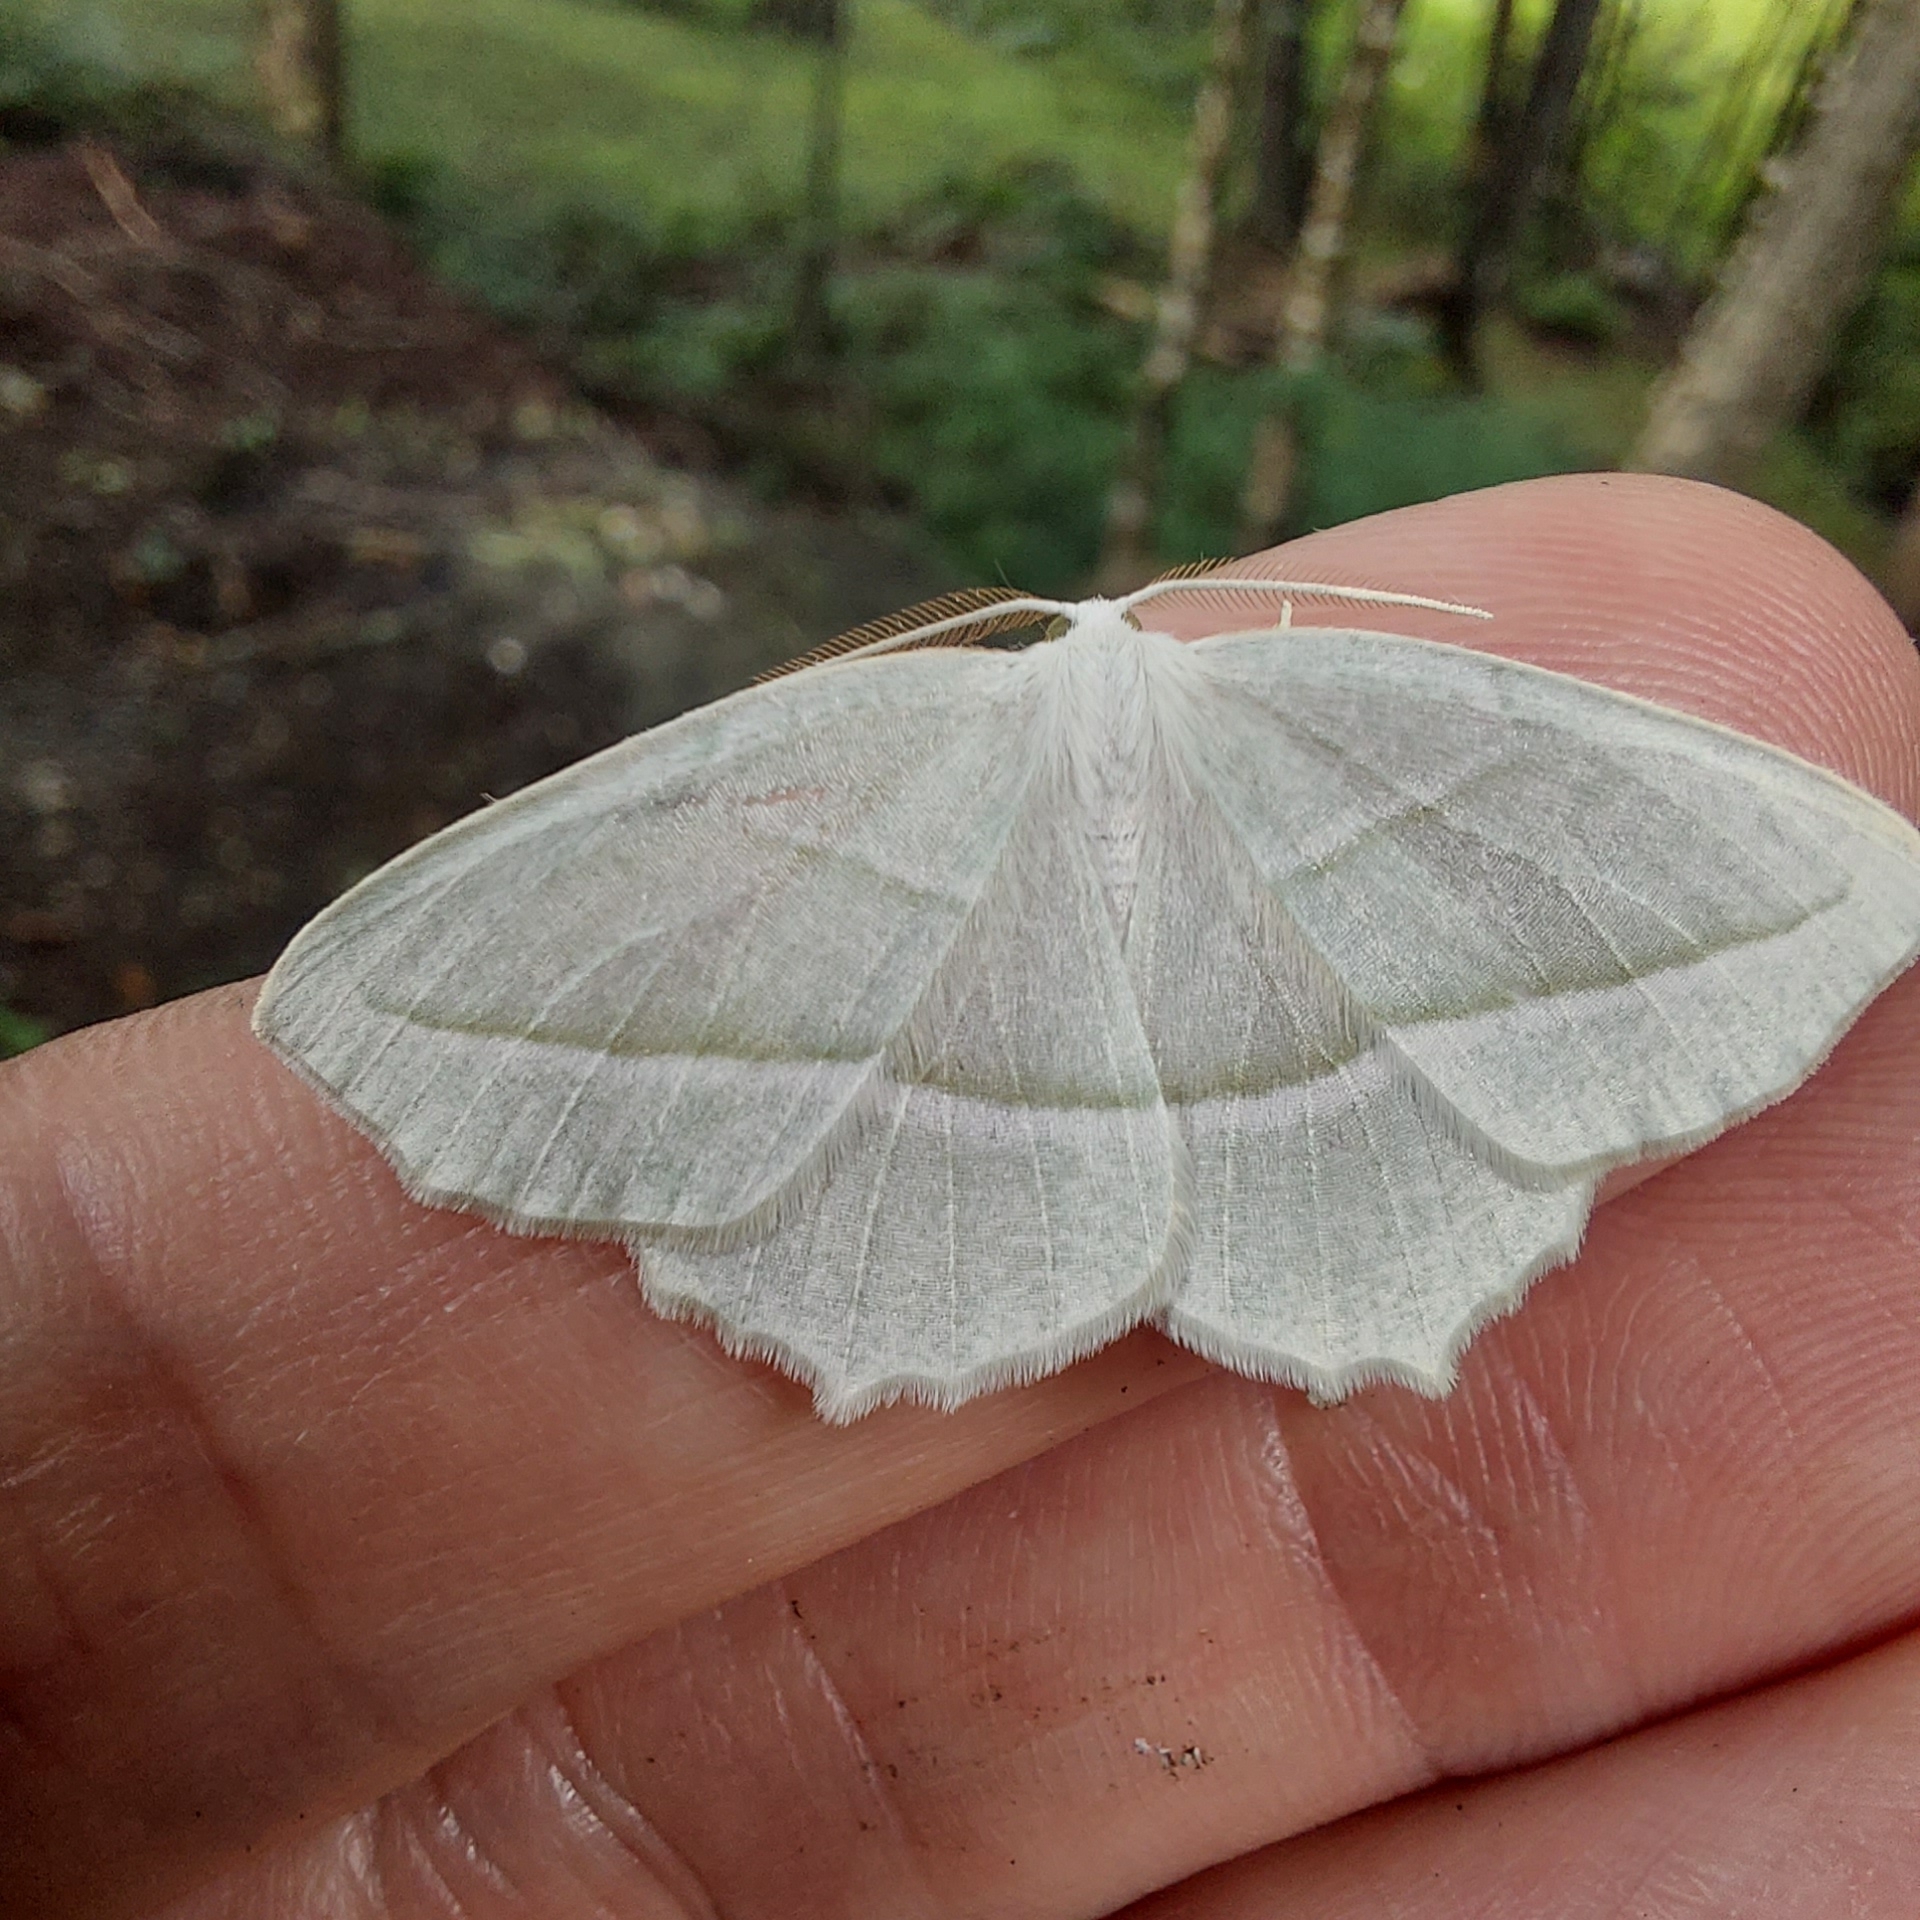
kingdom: Animalia
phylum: Arthropoda
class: Insecta
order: Lepidoptera
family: Geometridae
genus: Campaea
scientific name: Campaea perlata
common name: Fringed looper
